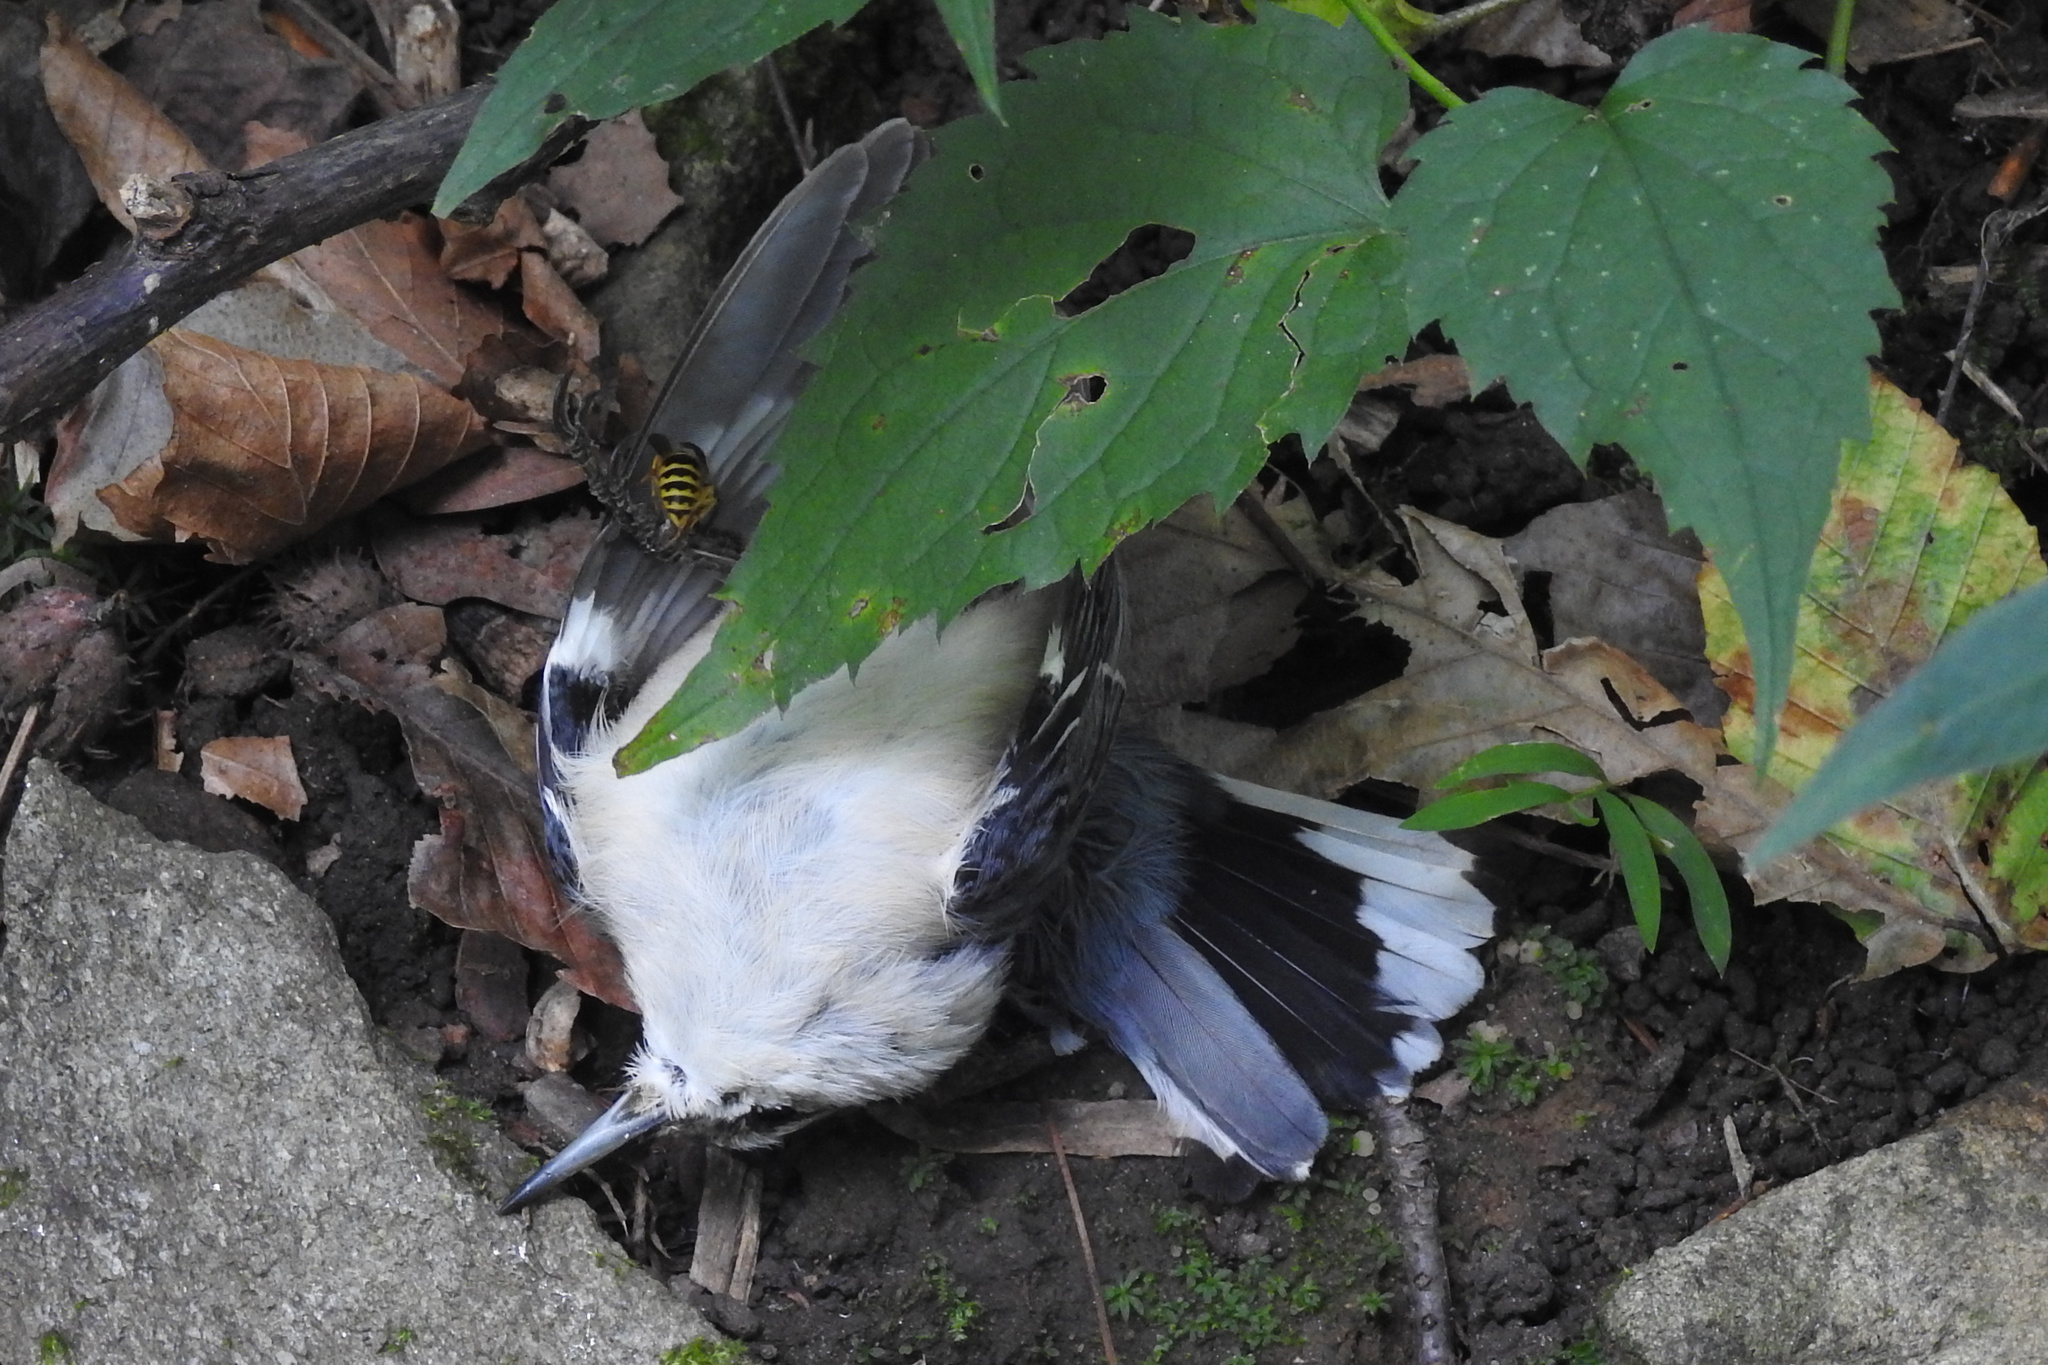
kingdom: Animalia
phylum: Chordata
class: Aves
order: Passeriformes
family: Sittidae
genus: Sitta
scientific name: Sitta carolinensis
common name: White-breasted nuthatch
